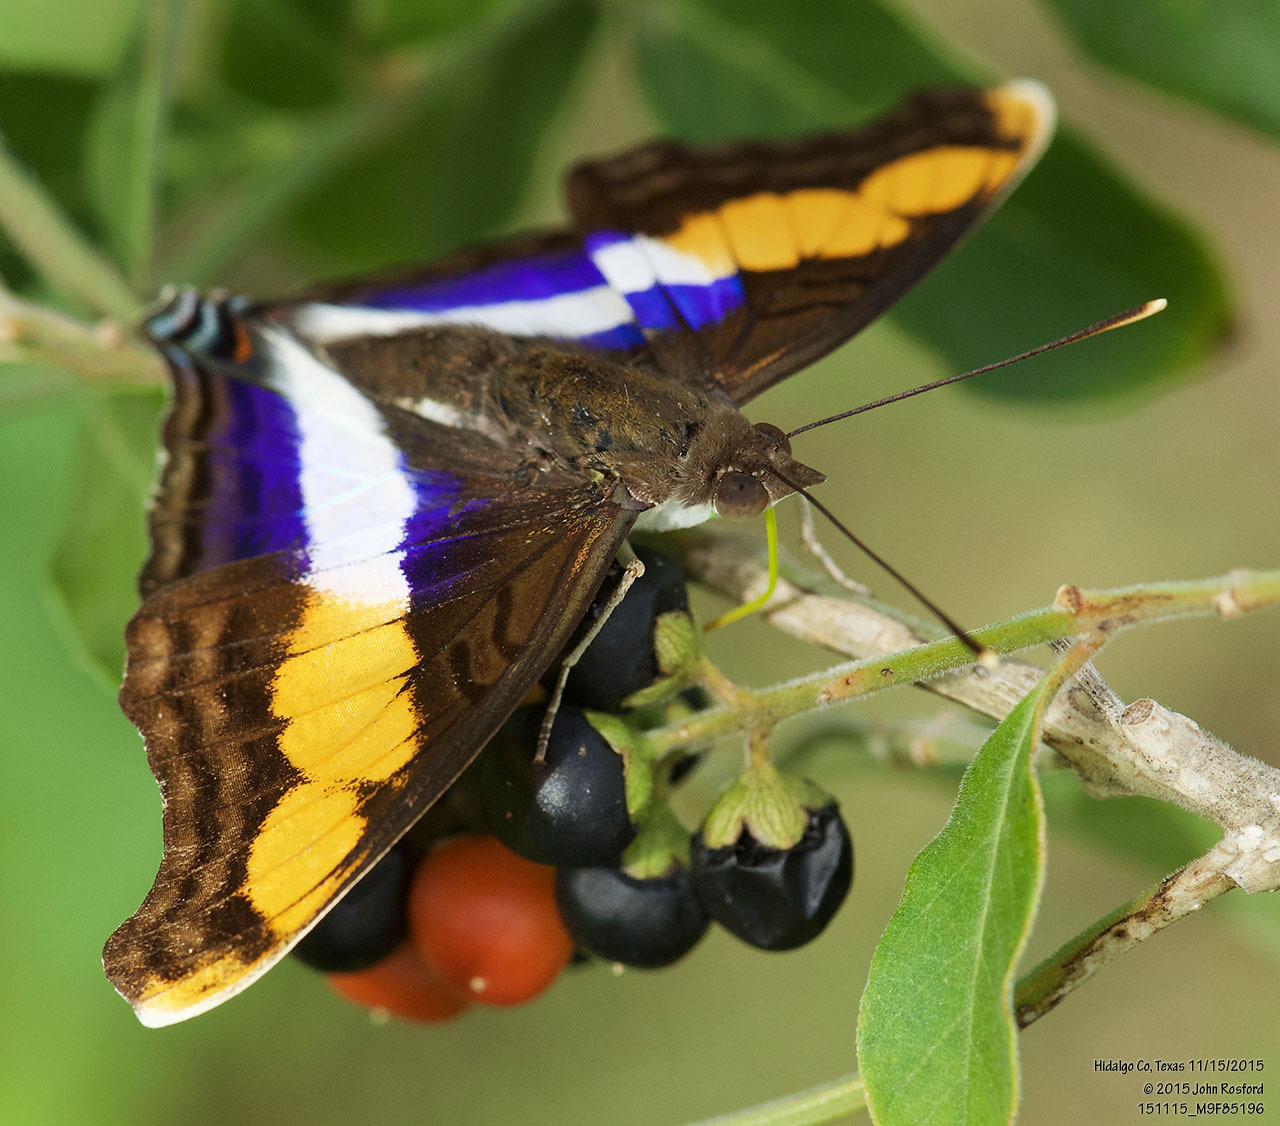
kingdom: Animalia
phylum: Arthropoda
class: Insecta
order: Lepidoptera
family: Nymphalidae
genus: Doxocopa
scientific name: Doxocopa laure
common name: Silver emperor
